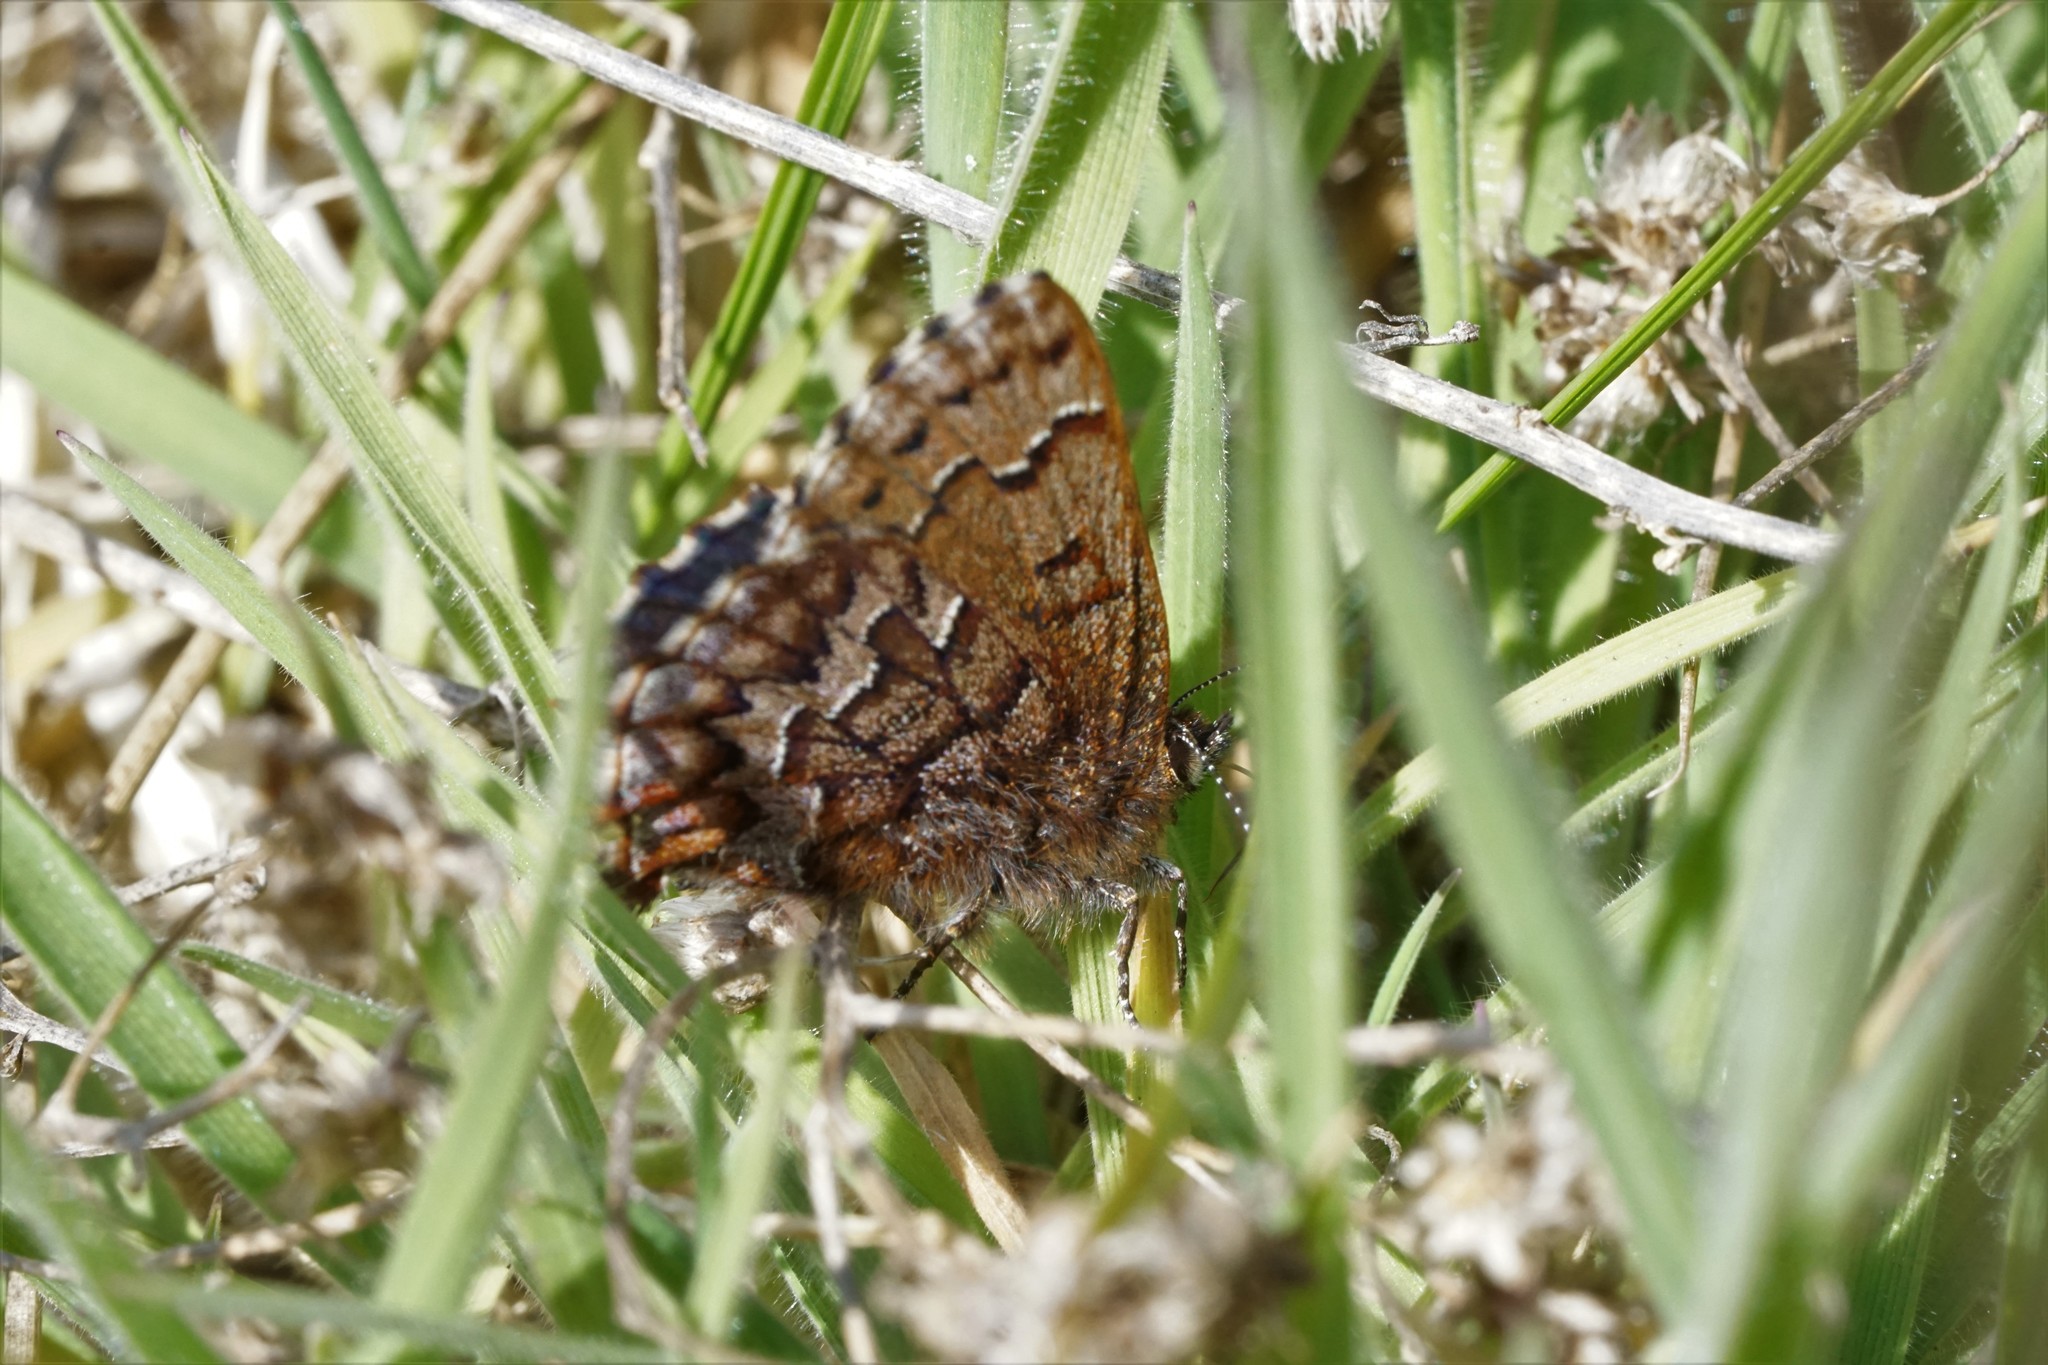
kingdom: Animalia
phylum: Arthropoda
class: Insecta
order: Lepidoptera
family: Lycaenidae
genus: Incisalia
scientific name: Incisalia niphon
